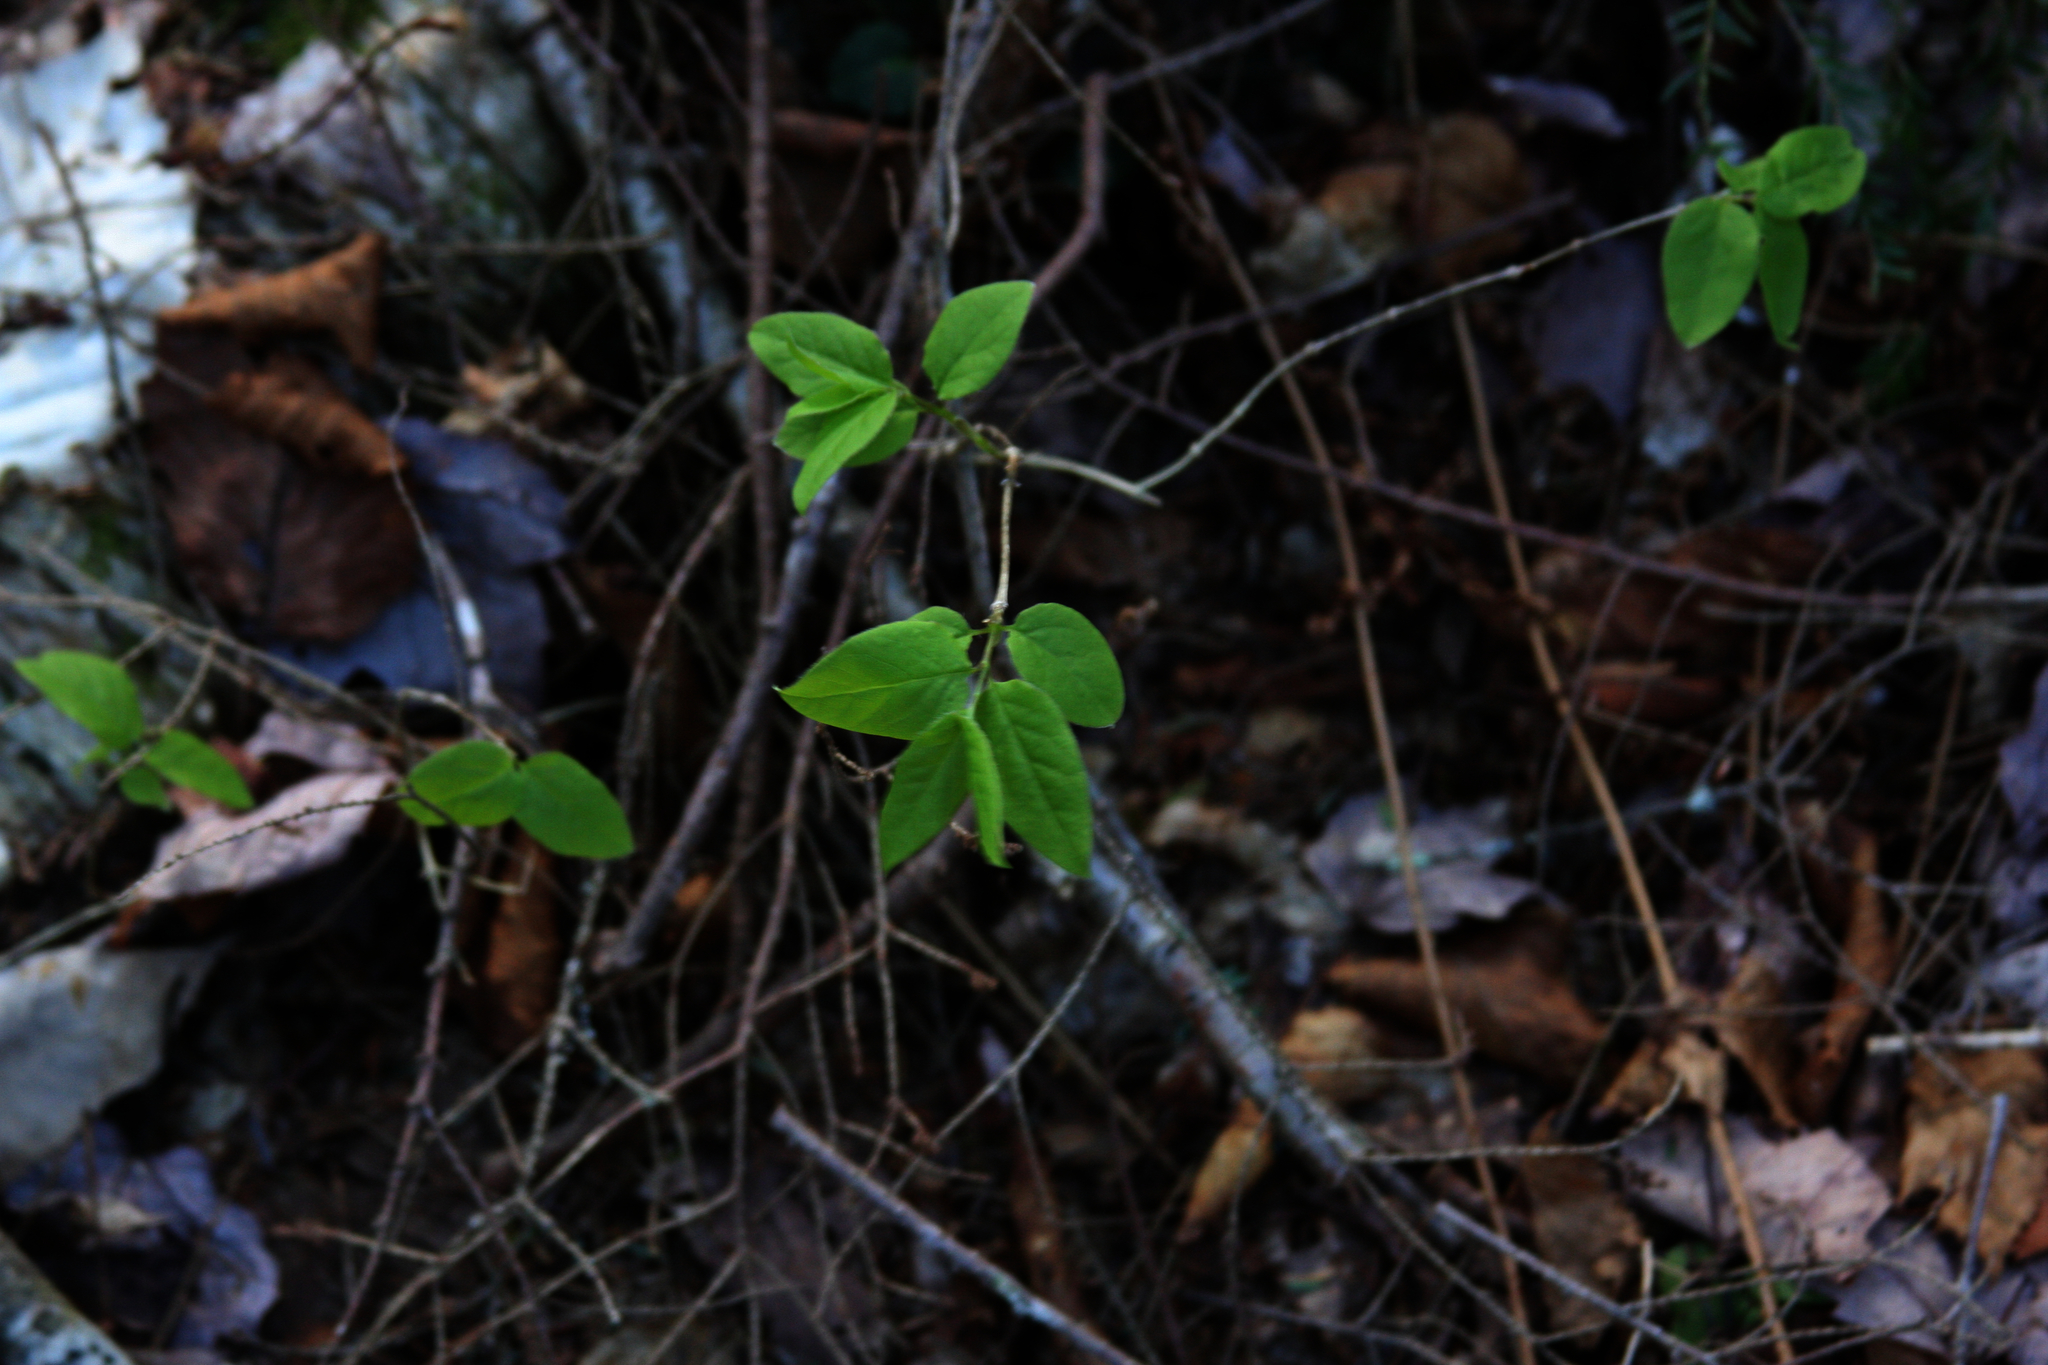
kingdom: Plantae
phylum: Tracheophyta
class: Magnoliopsida
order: Dipsacales
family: Caprifoliaceae
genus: Lonicera
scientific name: Lonicera canadensis
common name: American fly-honeysuckle
